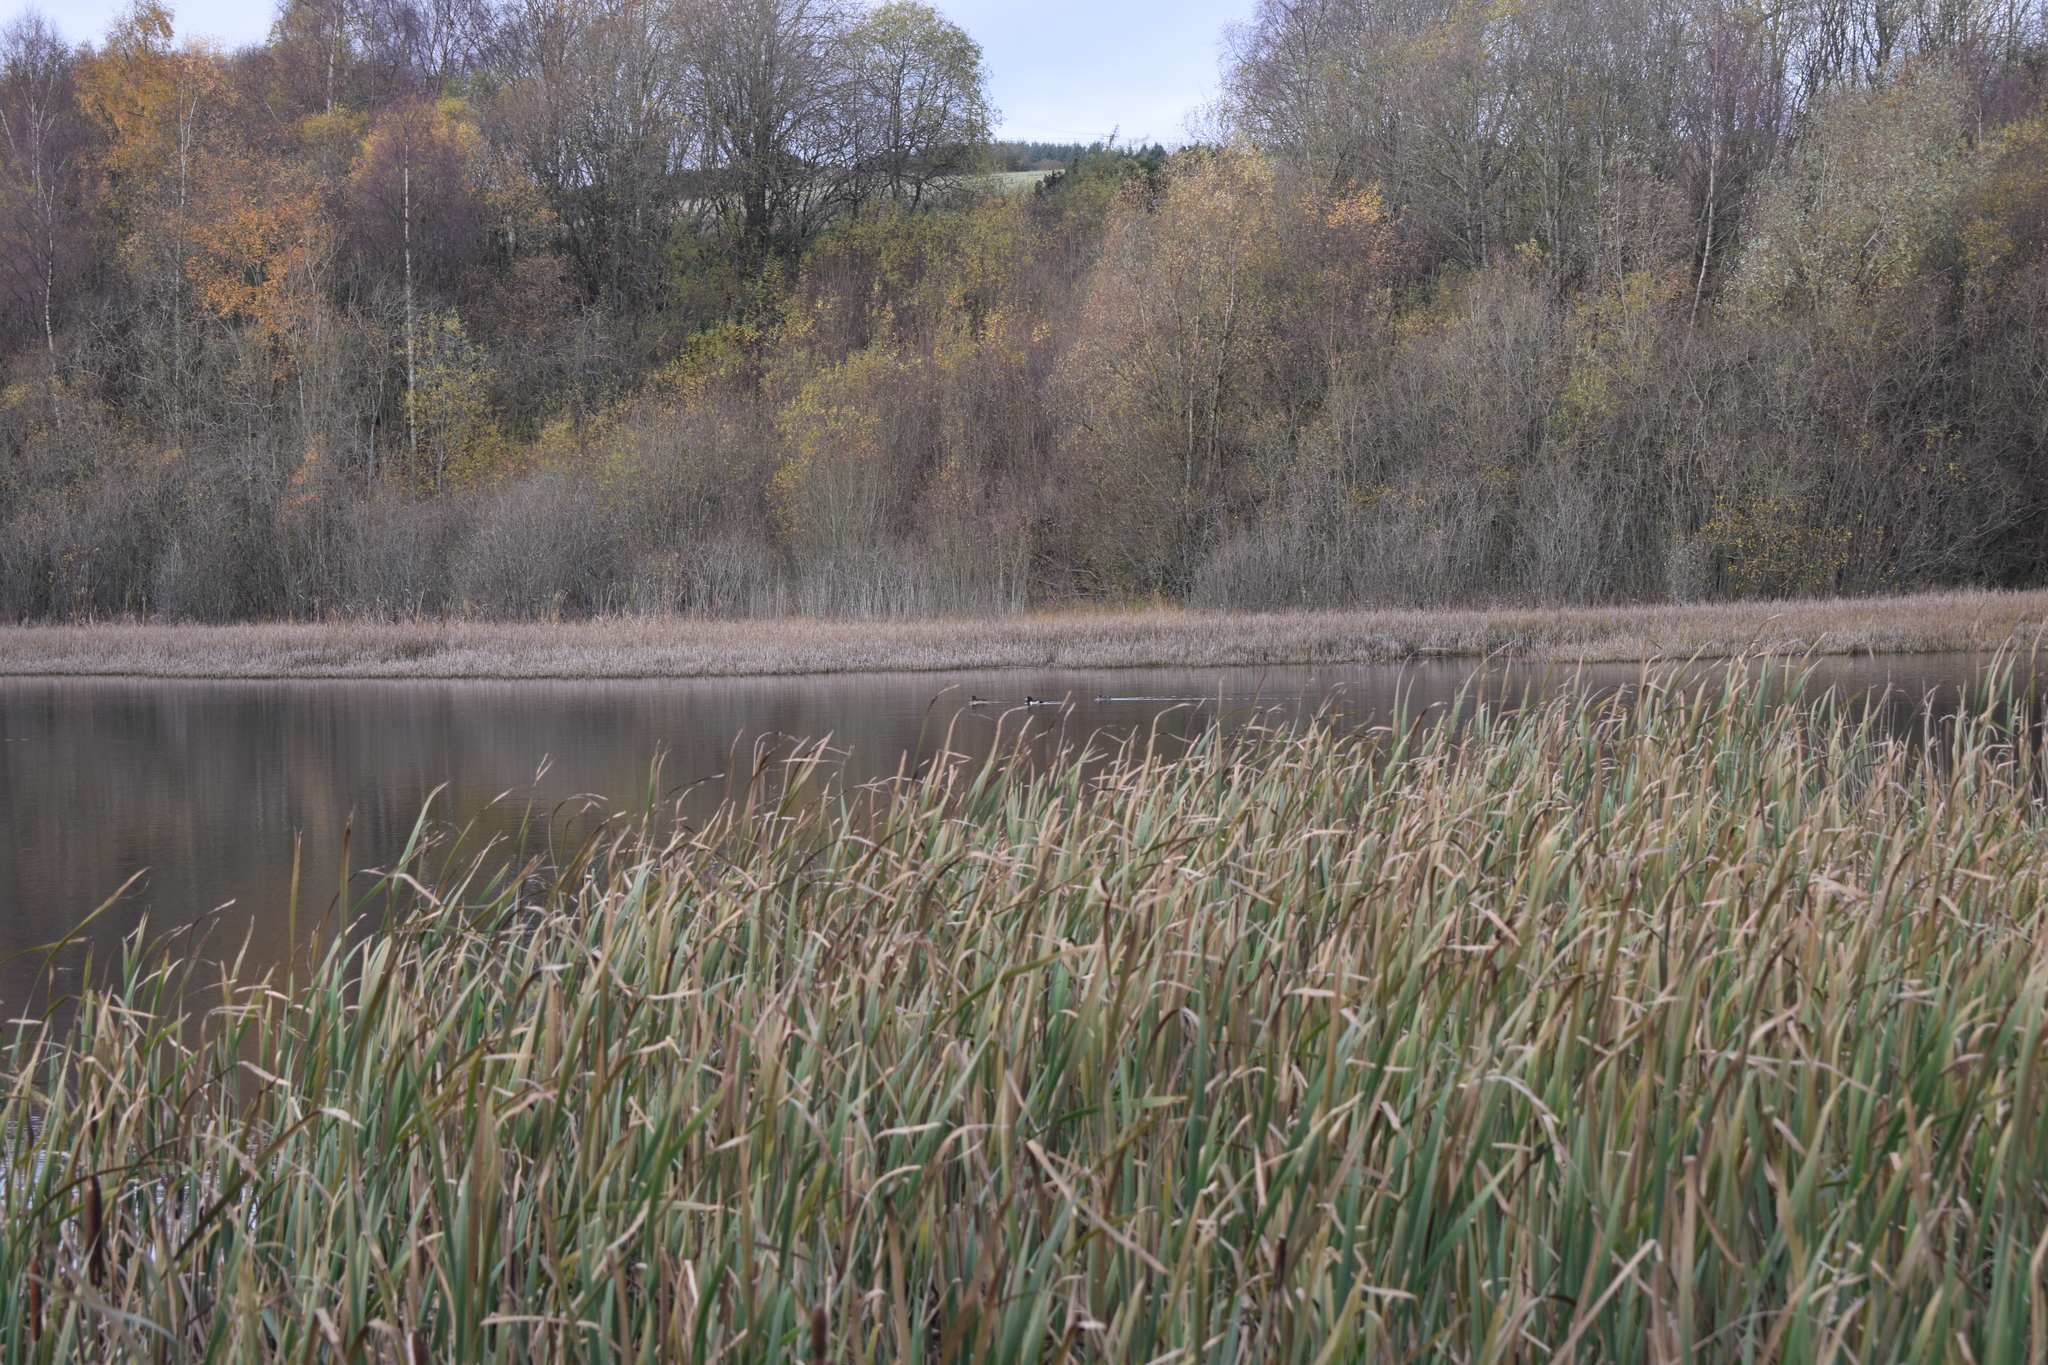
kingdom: Animalia
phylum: Chordata
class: Aves
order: Anseriformes
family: Anatidae
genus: Aythya
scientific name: Aythya fuligula
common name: Tufted duck
